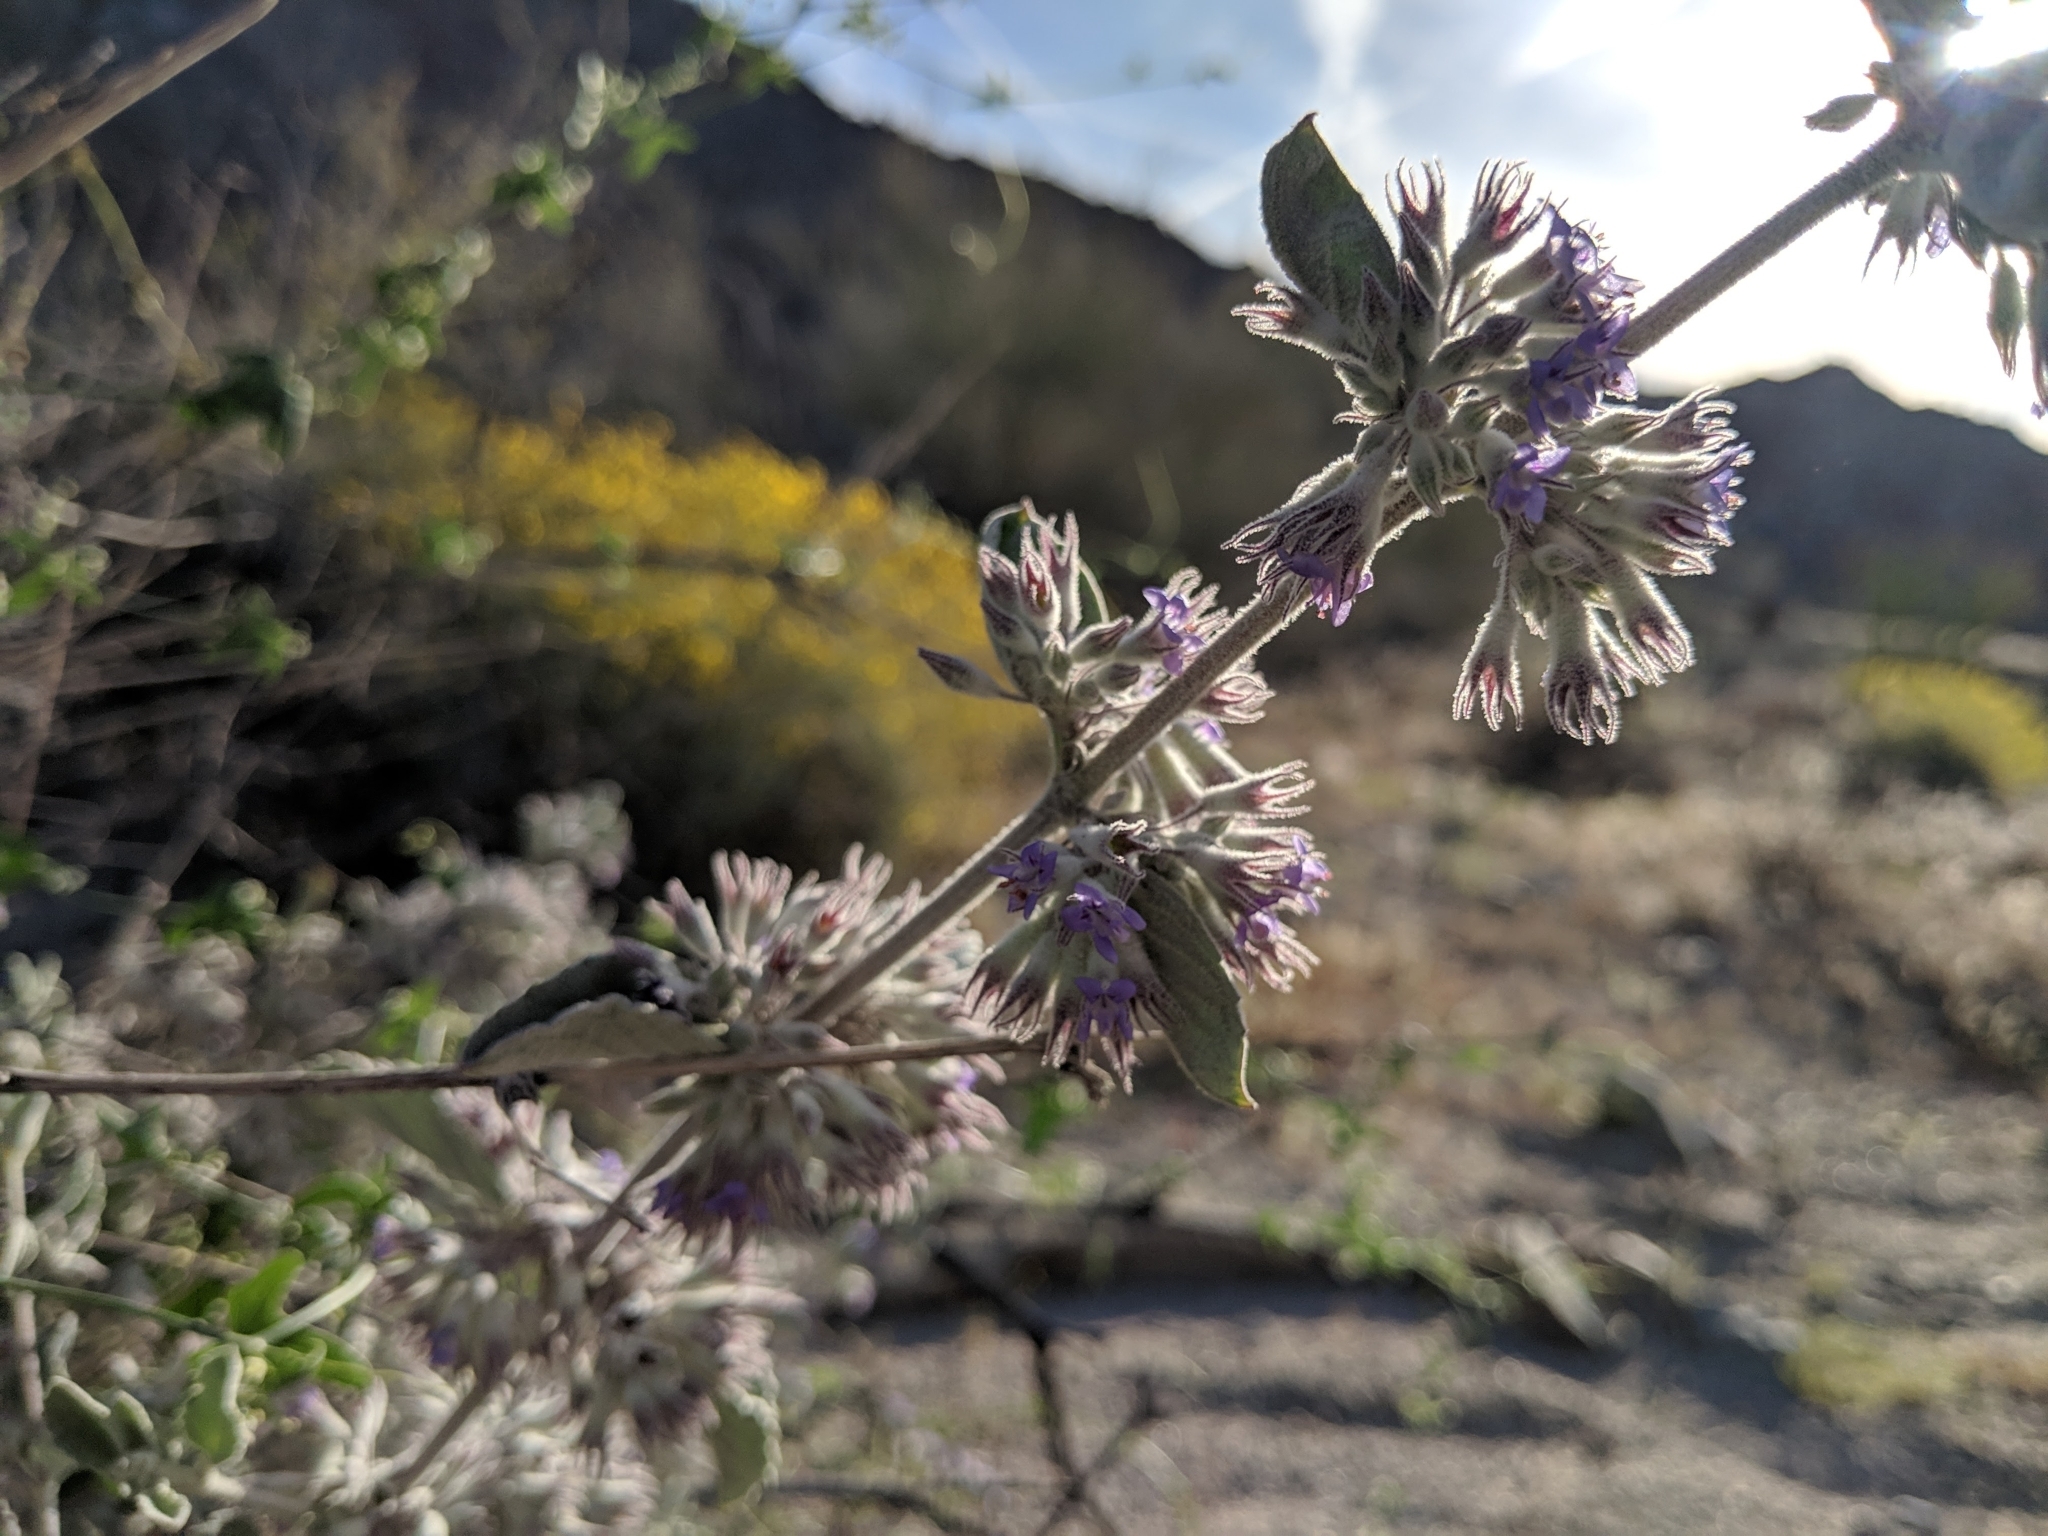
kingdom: Plantae
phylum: Tracheophyta
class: Magnoliopsida
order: Lamiales
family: Lamiaceae
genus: Condea
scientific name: Condea emoryi
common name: Chia
